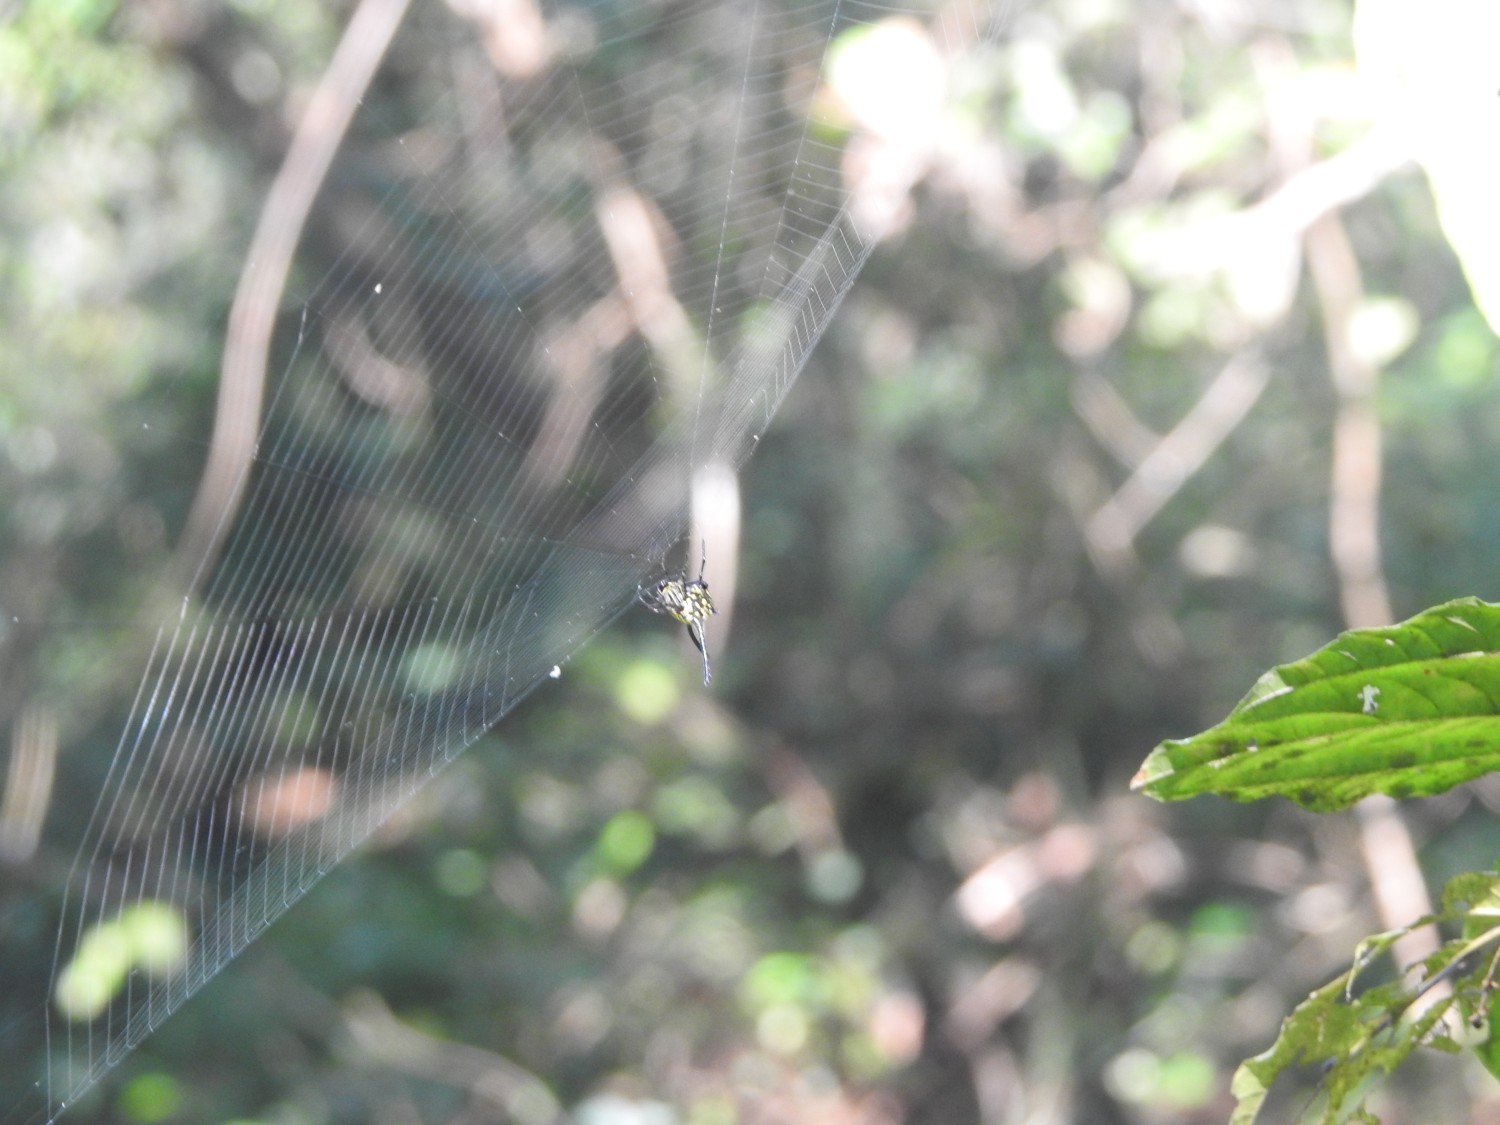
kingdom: Animalia
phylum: Arthropoda
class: Arachnida
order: Araneae
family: Araneidae
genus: Gasteracantha
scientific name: Gasteracantha dalyi
